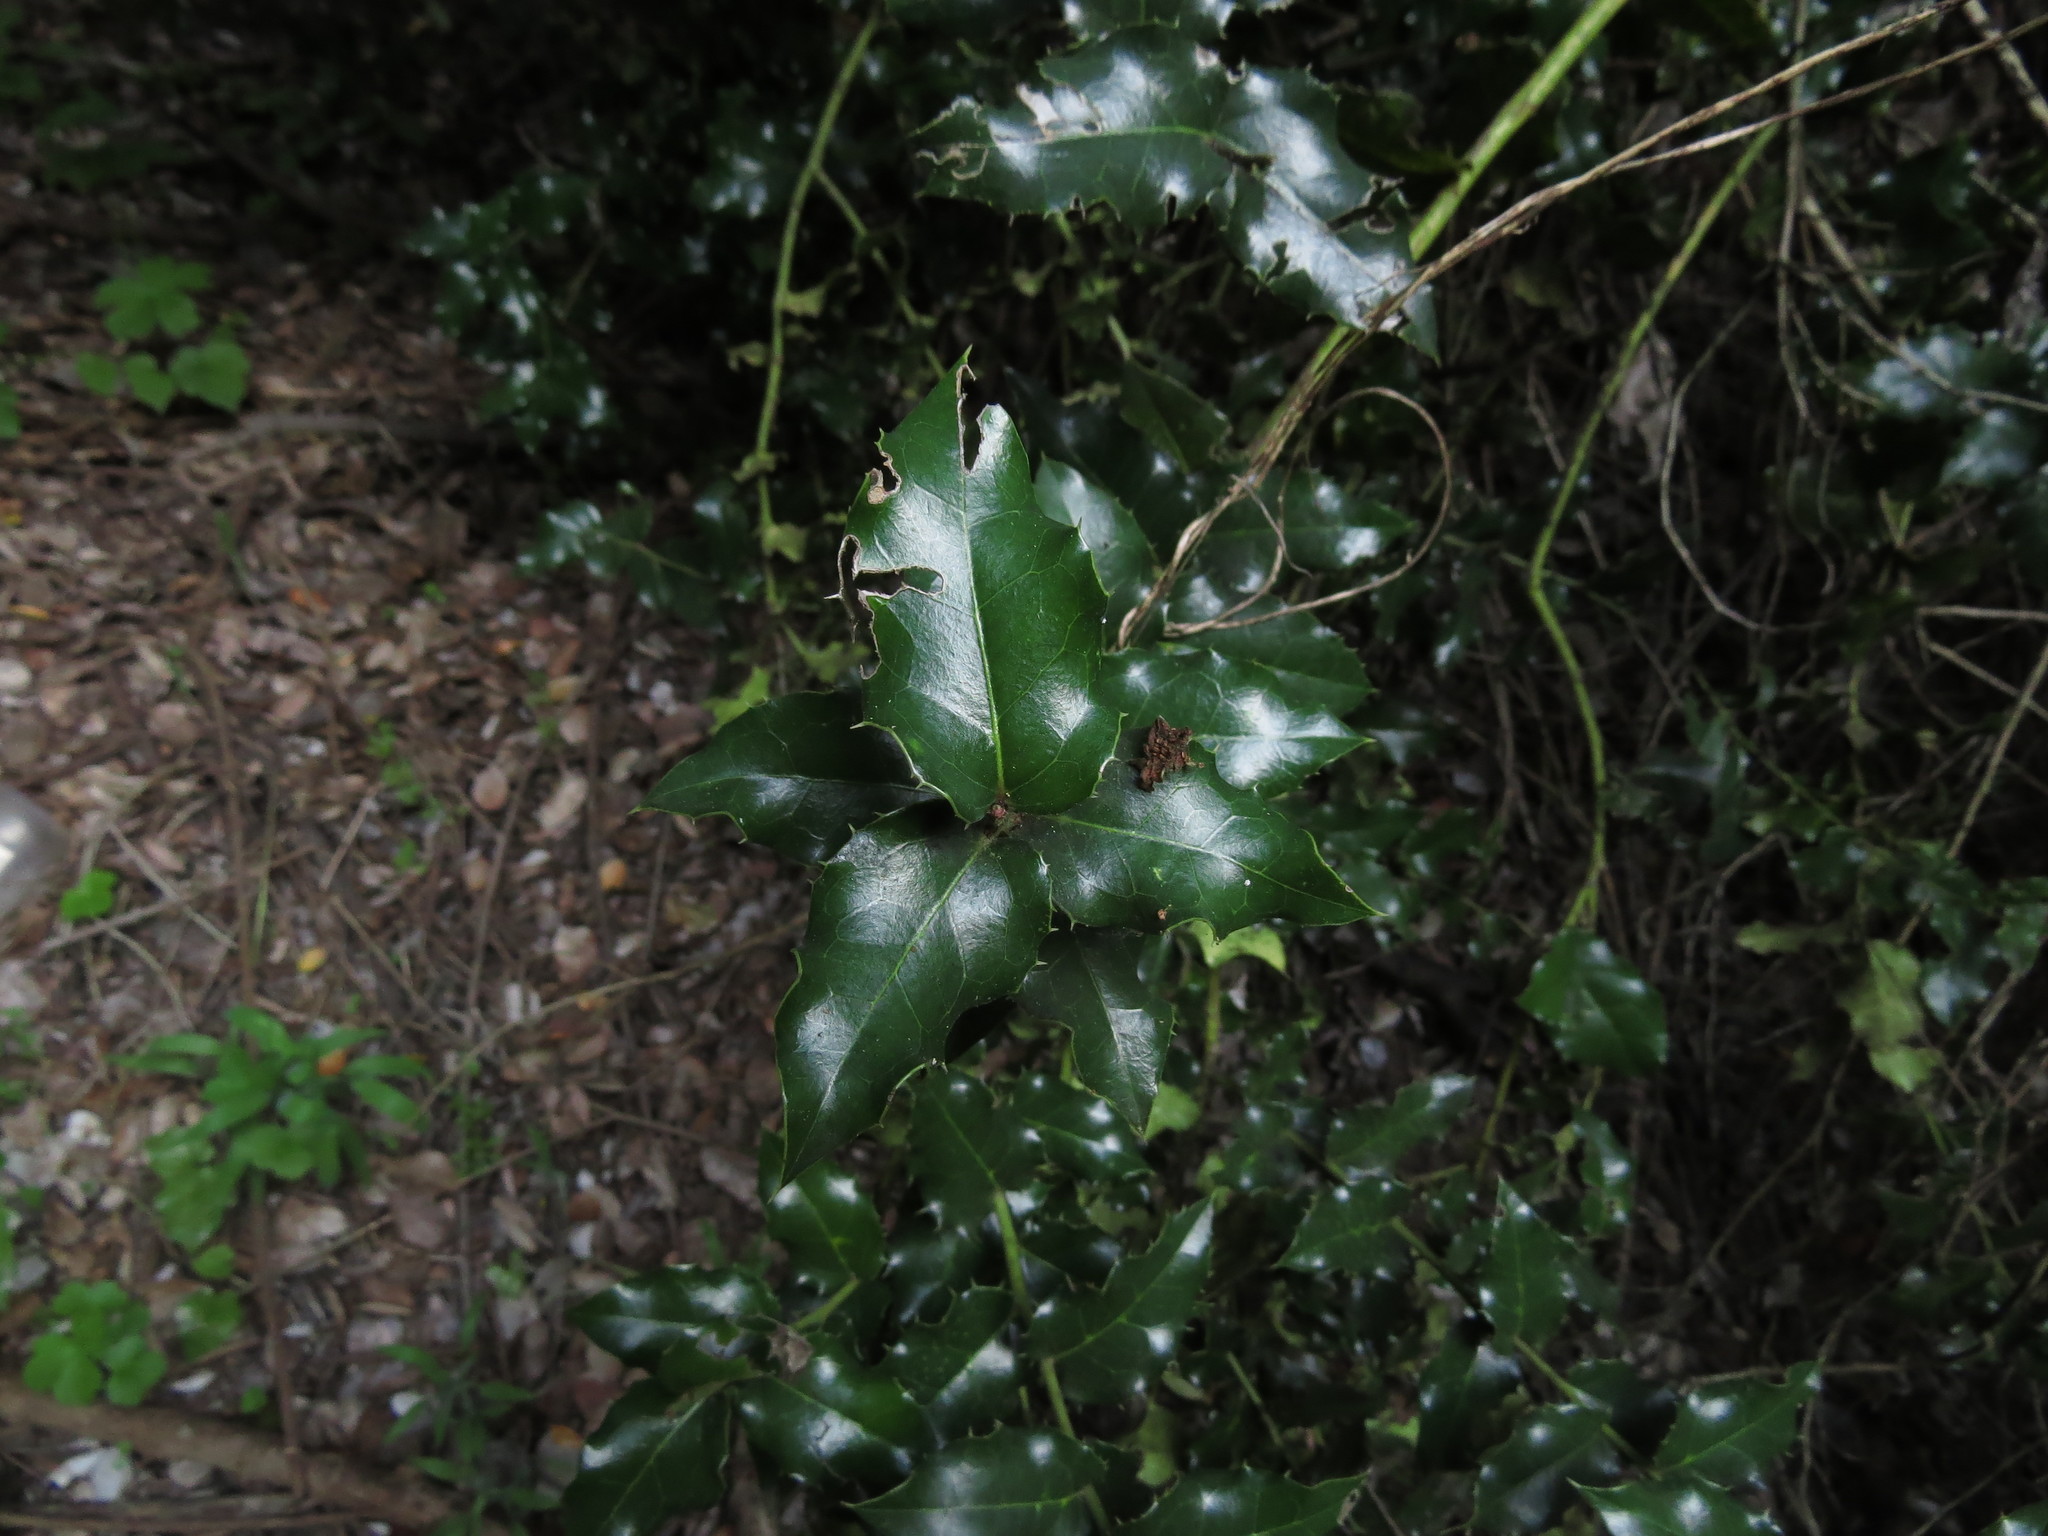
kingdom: Plantae
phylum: Tracheophyta
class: Magnoliopsida
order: Cardiopteridales
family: Cardiopteridaceae
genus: Citronella
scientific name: Citronella mucronata
